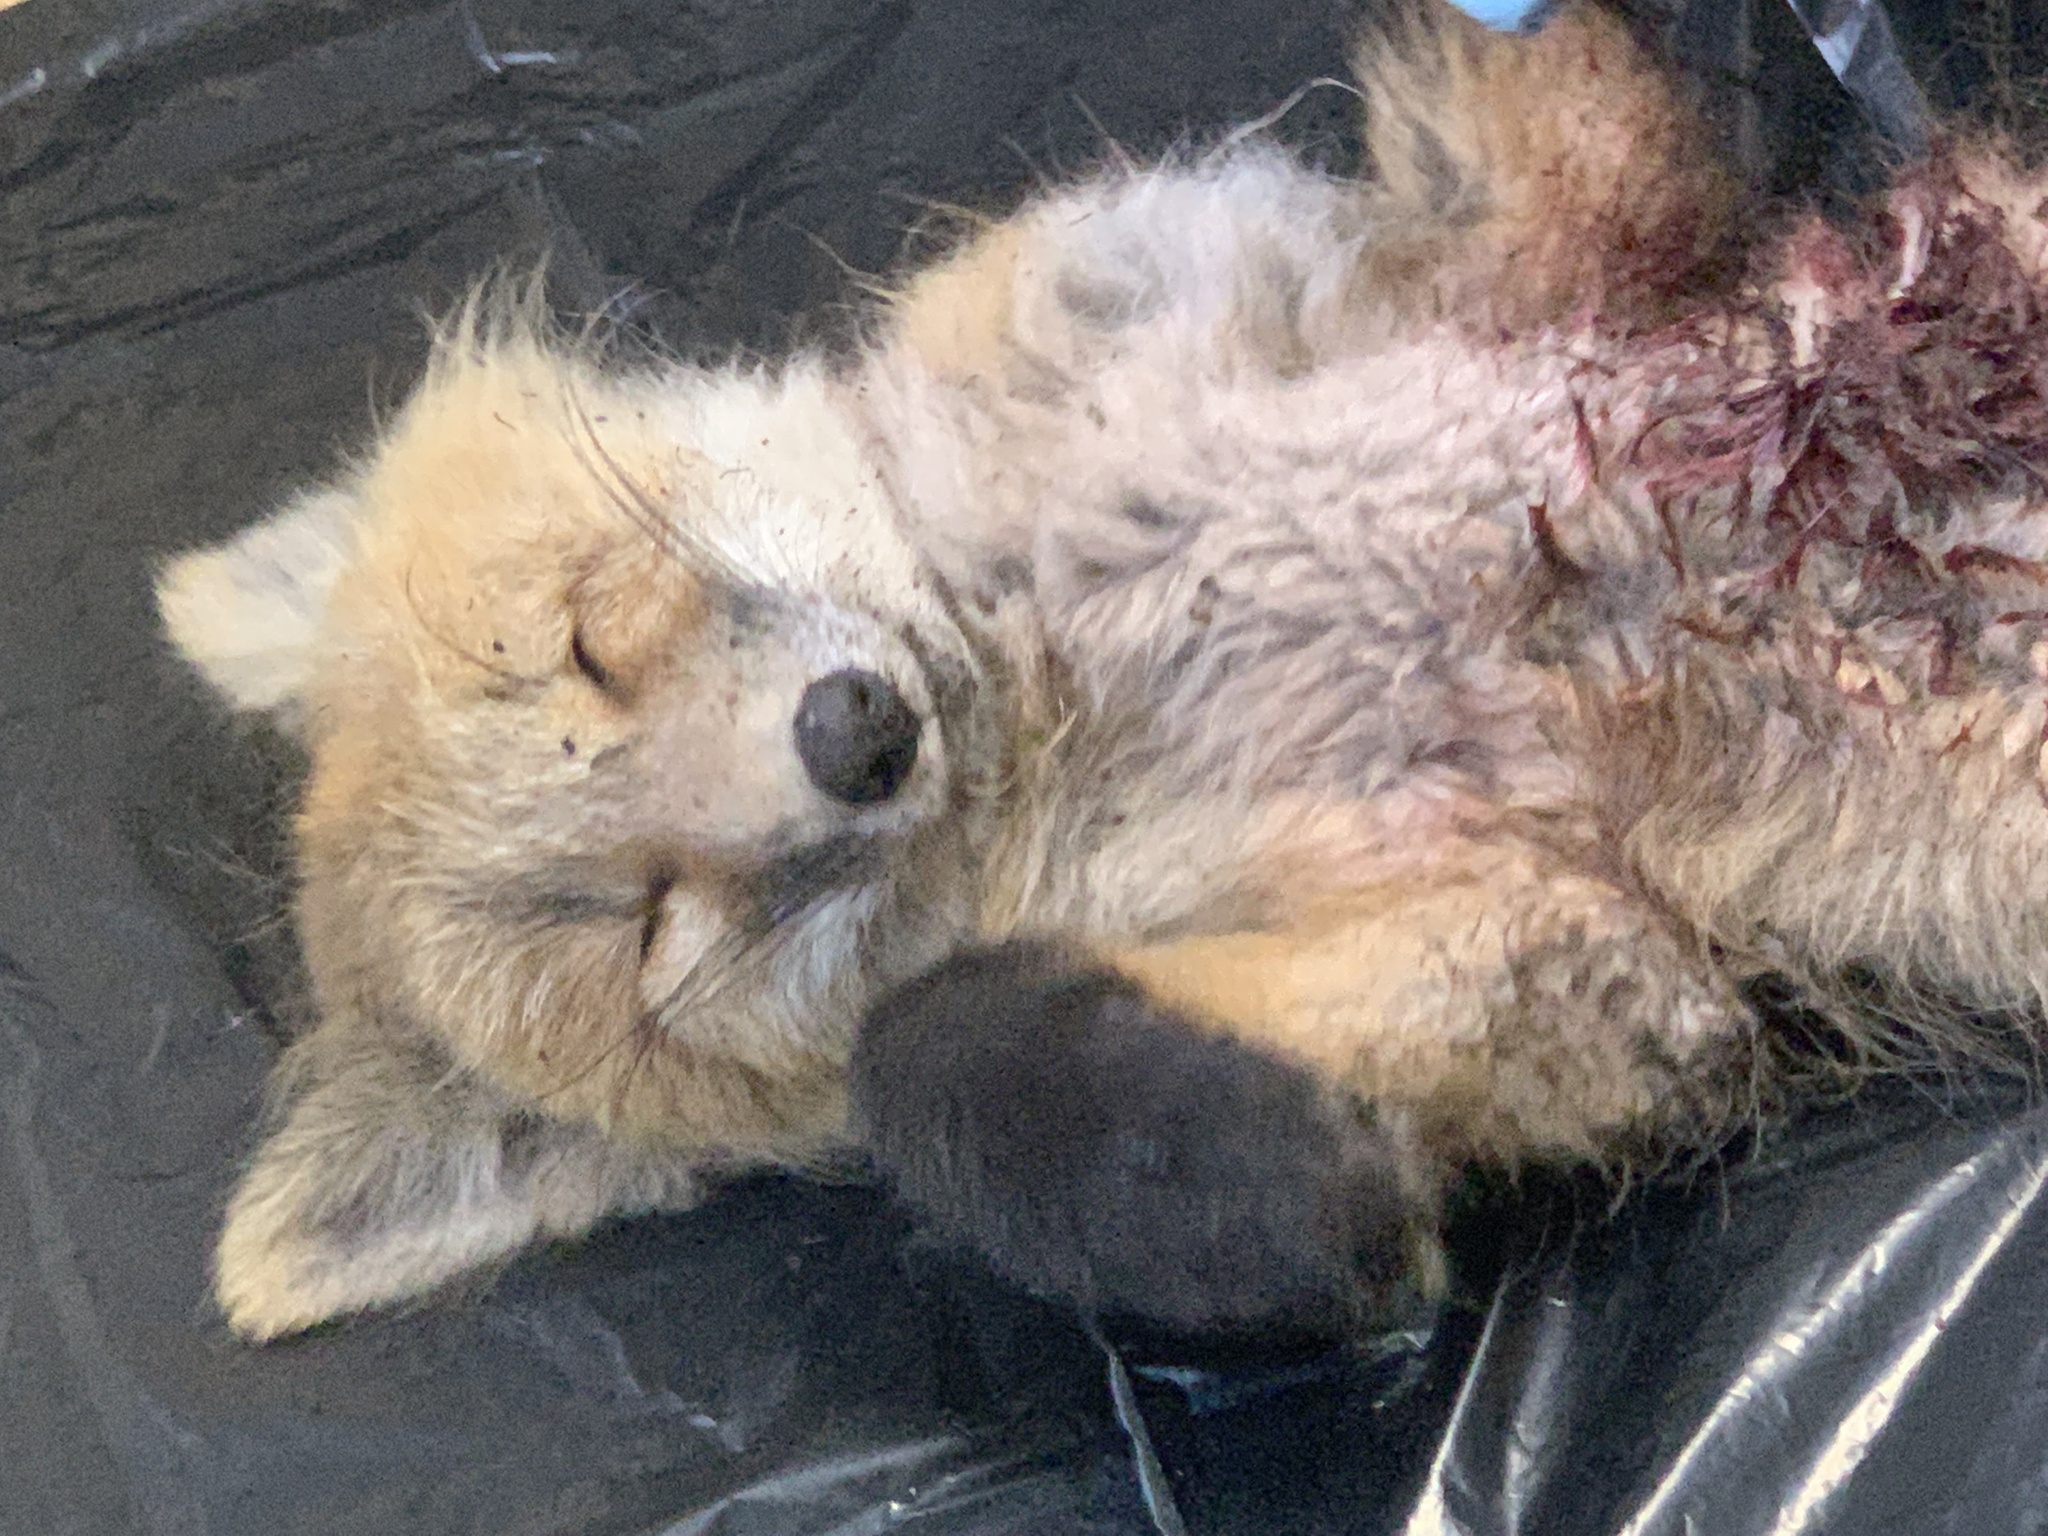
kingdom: Animalia
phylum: Chordata
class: Mammalia
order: Carnivora
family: Canidae
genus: Vulpes
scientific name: Vulpes vulpes
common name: Red fox
